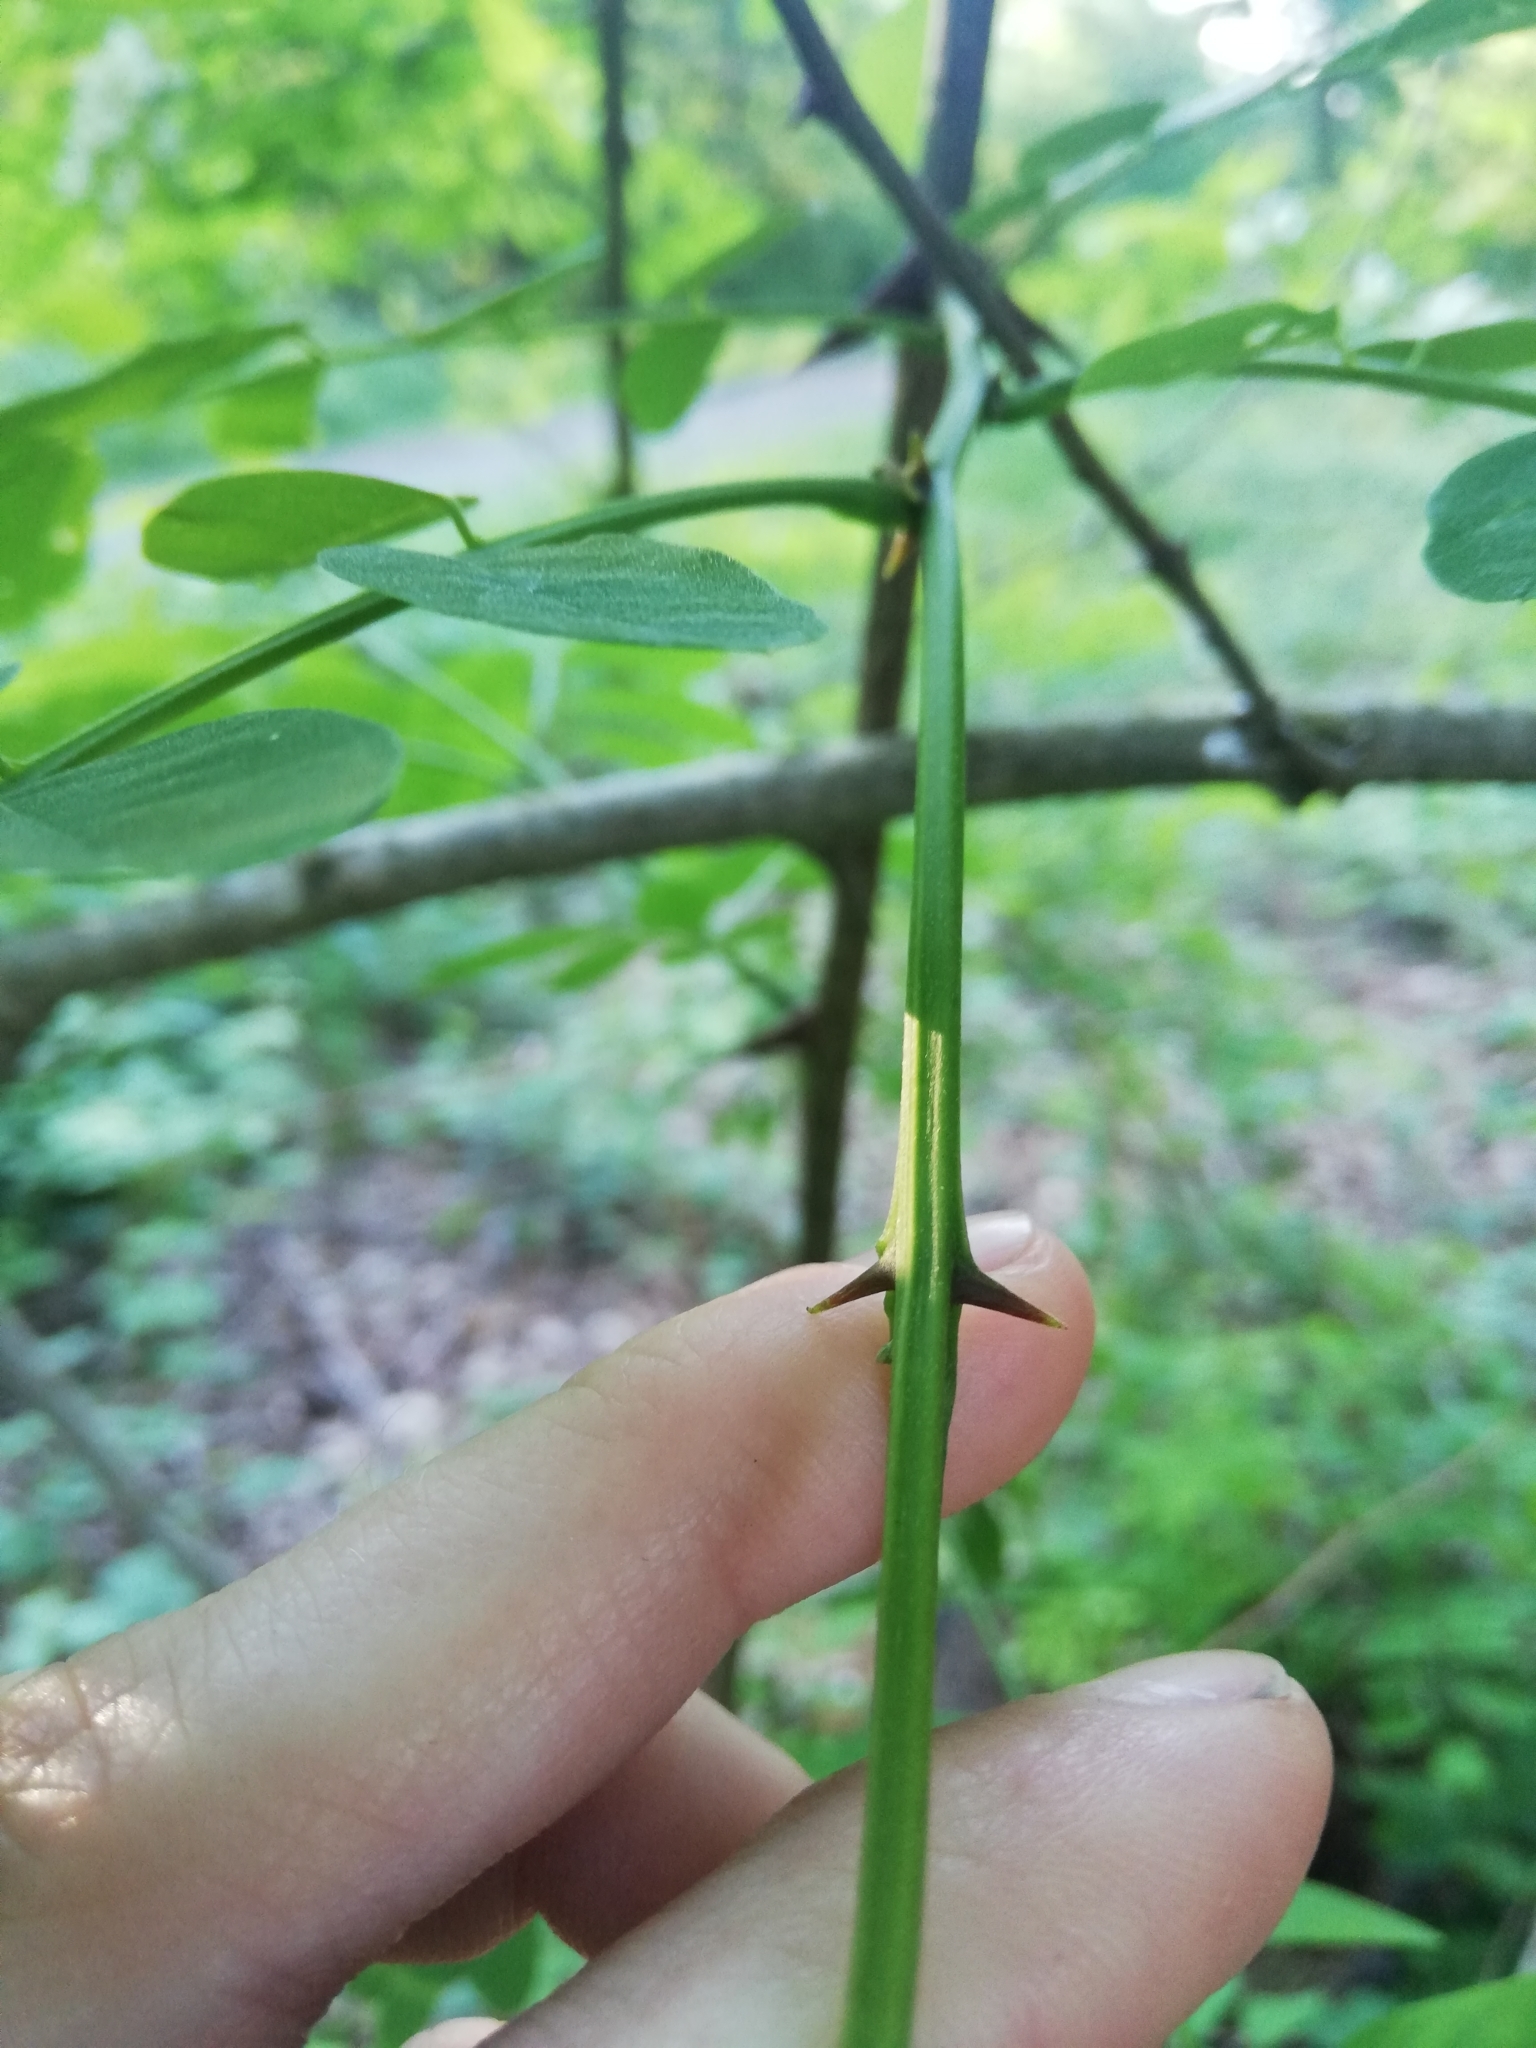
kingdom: Plantae
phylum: Tracheophyta
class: Magnoliopsida
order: Fabales
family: Fabaceae
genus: Robinia
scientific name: Robinia pseudoacacia
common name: Black locust
